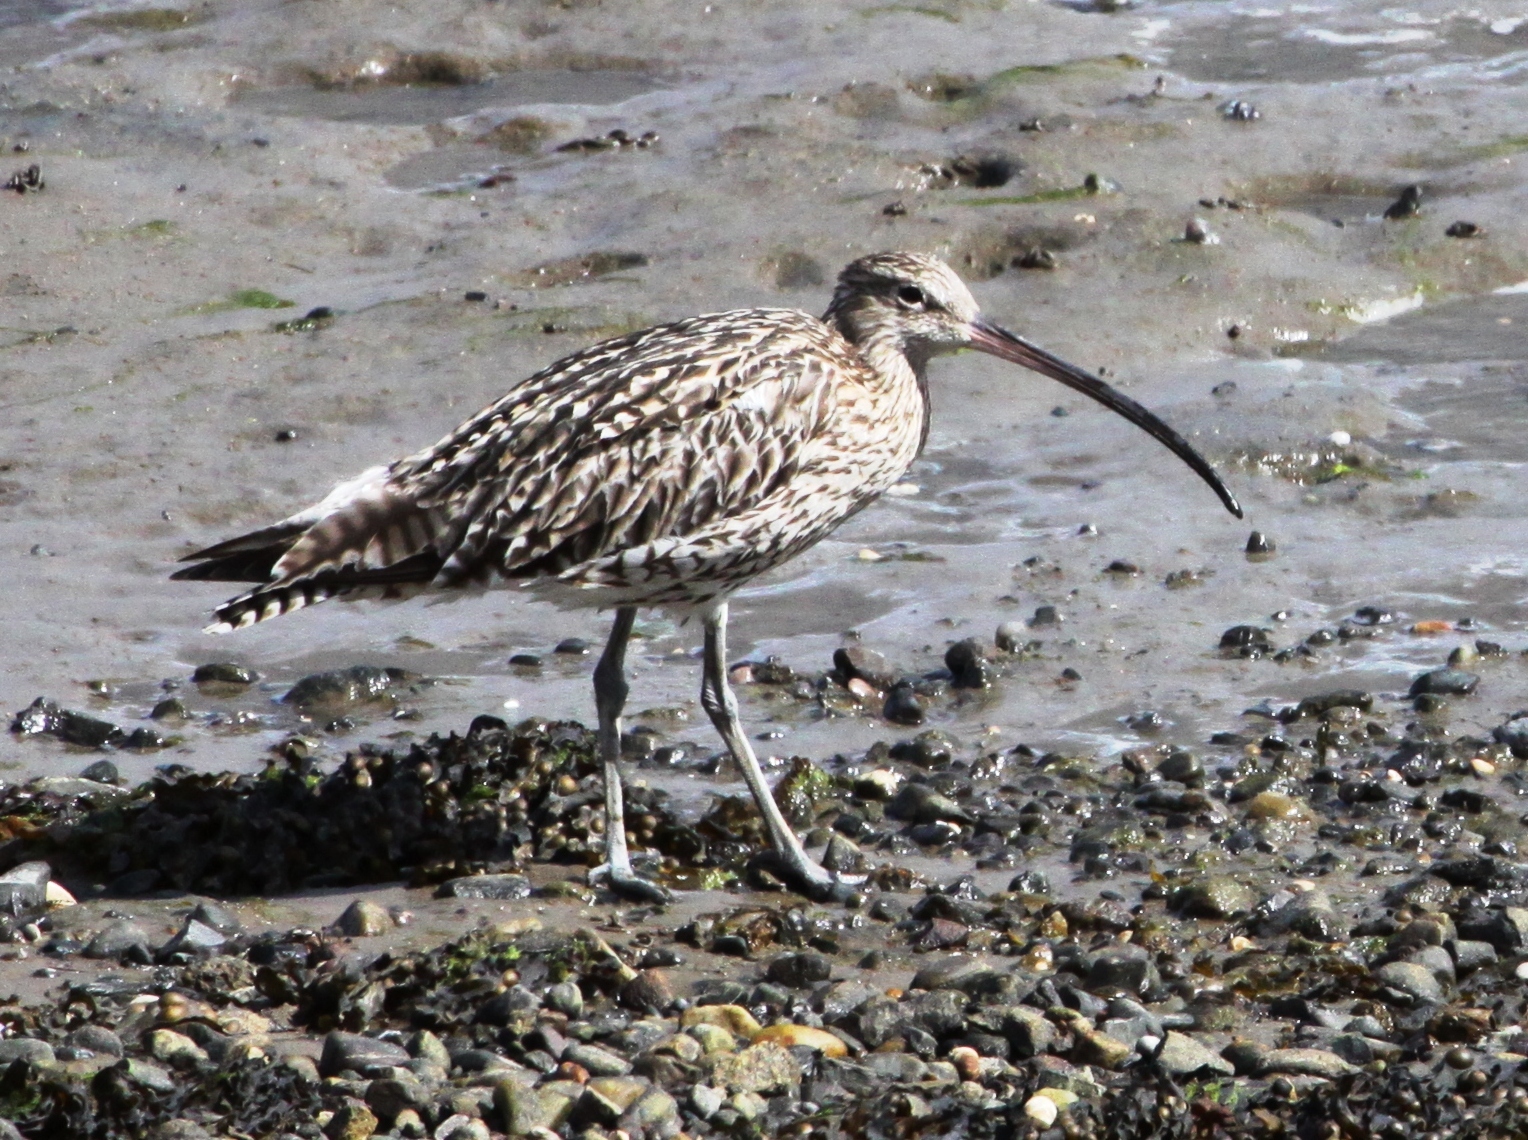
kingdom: Animalia
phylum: Chordata
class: Aves
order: Charadriiformes
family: Scolopacidae
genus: Numenius
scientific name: Numenius arquata
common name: Eurasian curlew
